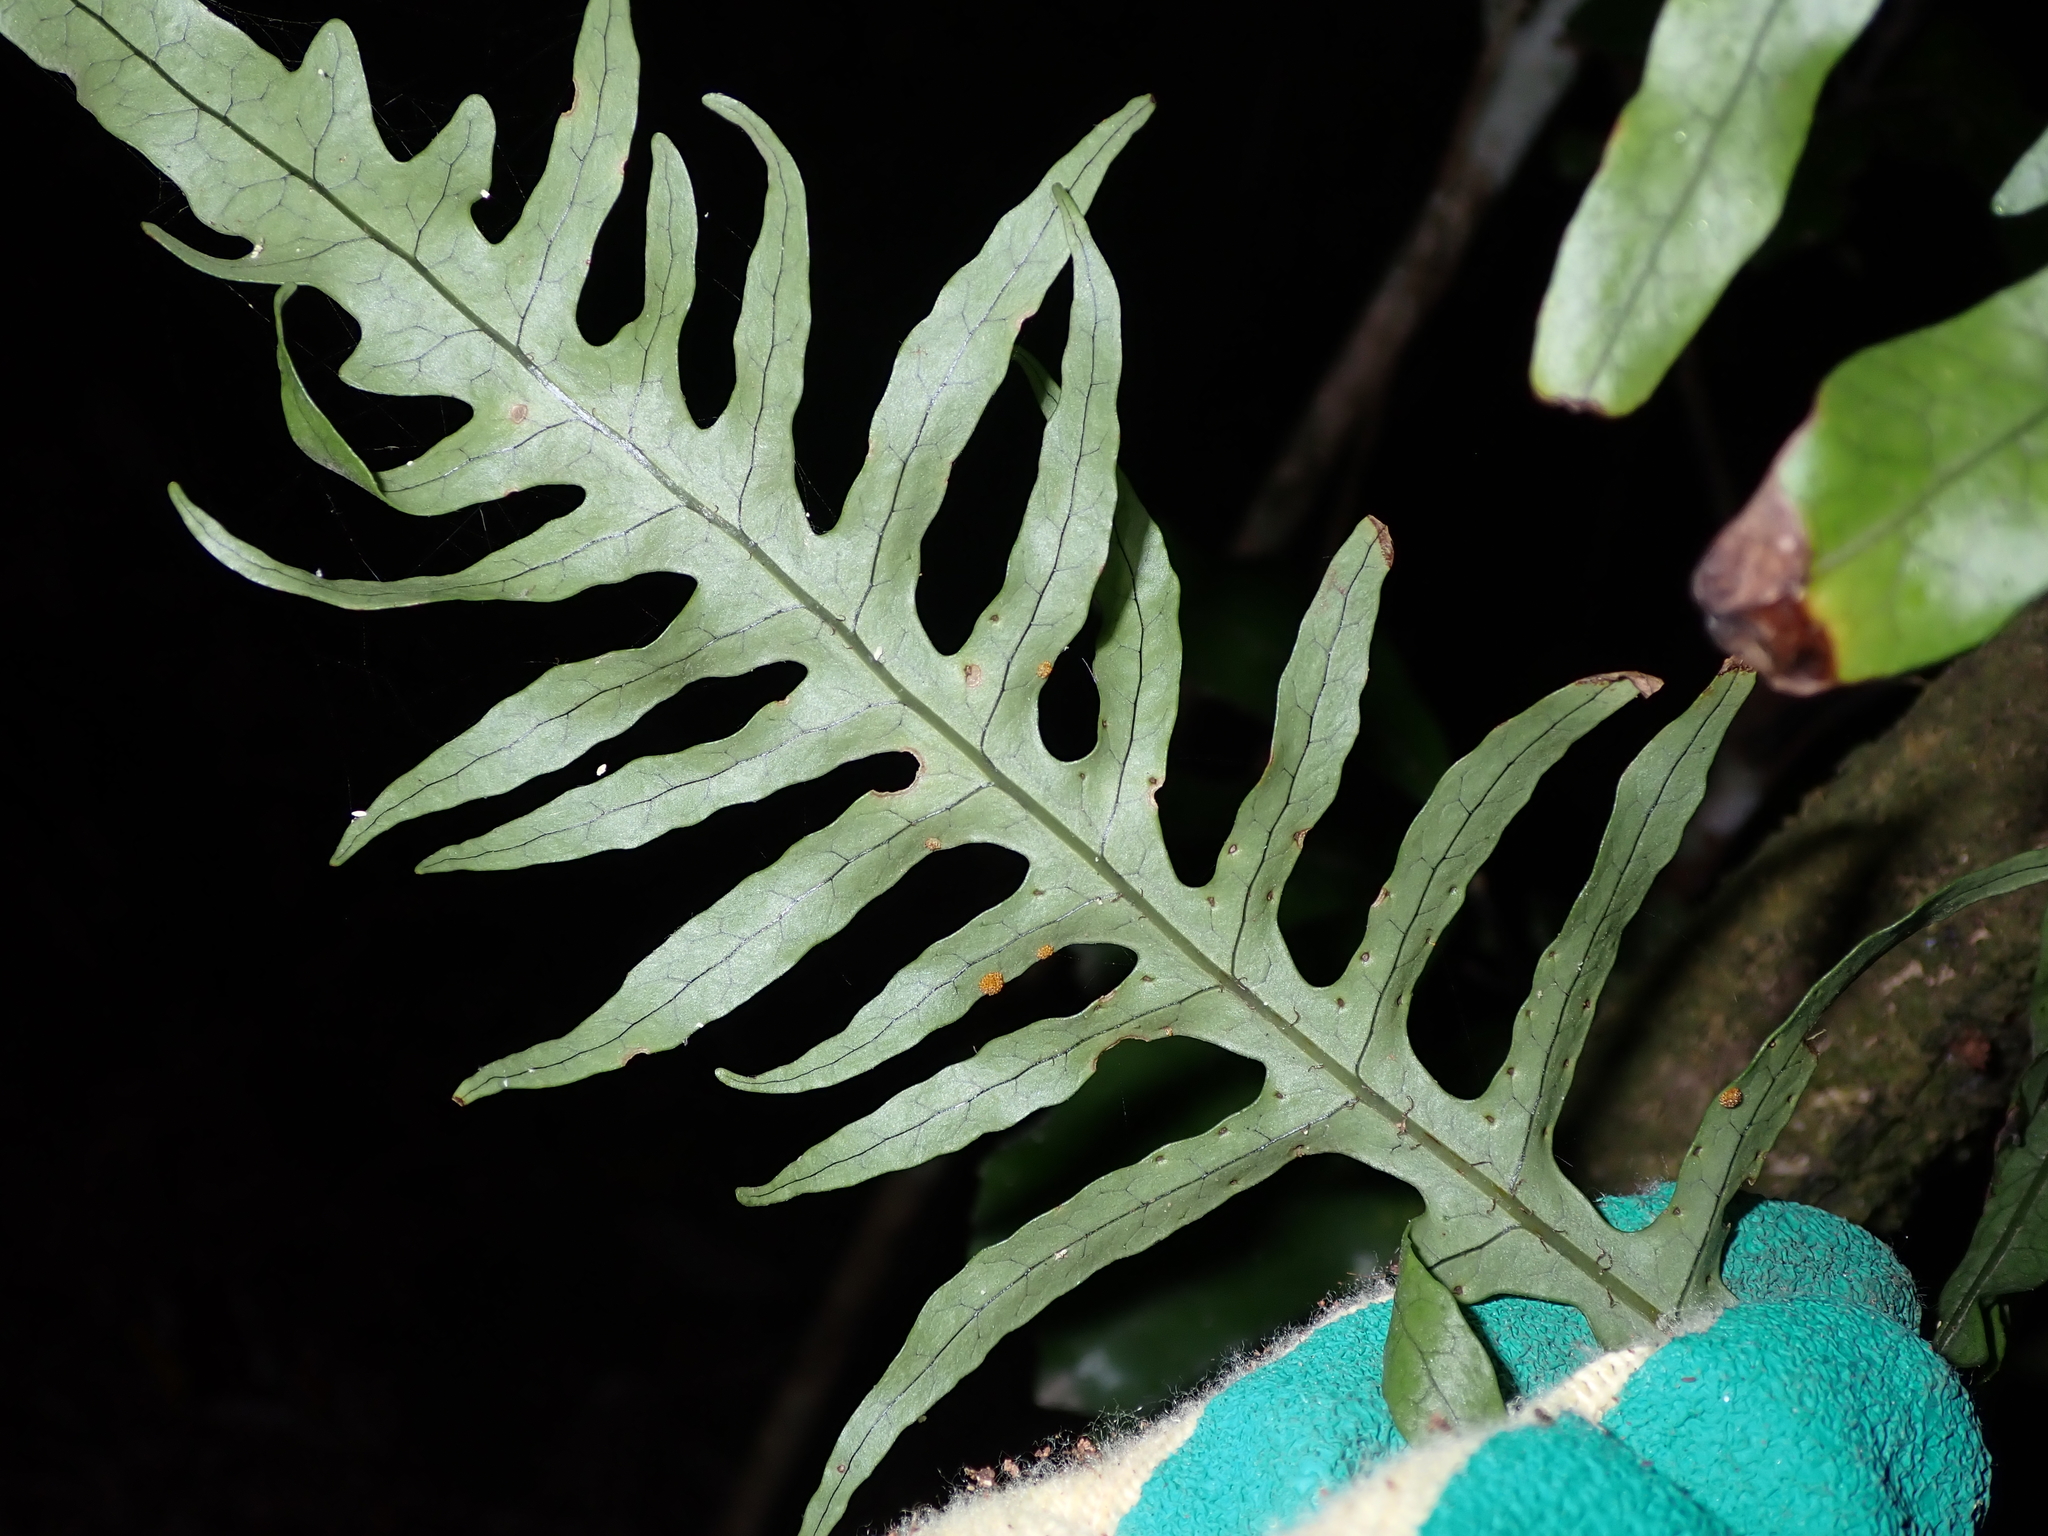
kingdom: Plantae
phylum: Tracheophyta
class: Polypodiopsida
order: Polypodiales
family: Polypodiaceae
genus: Lecanopteris
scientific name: Lecanopteris scandens
